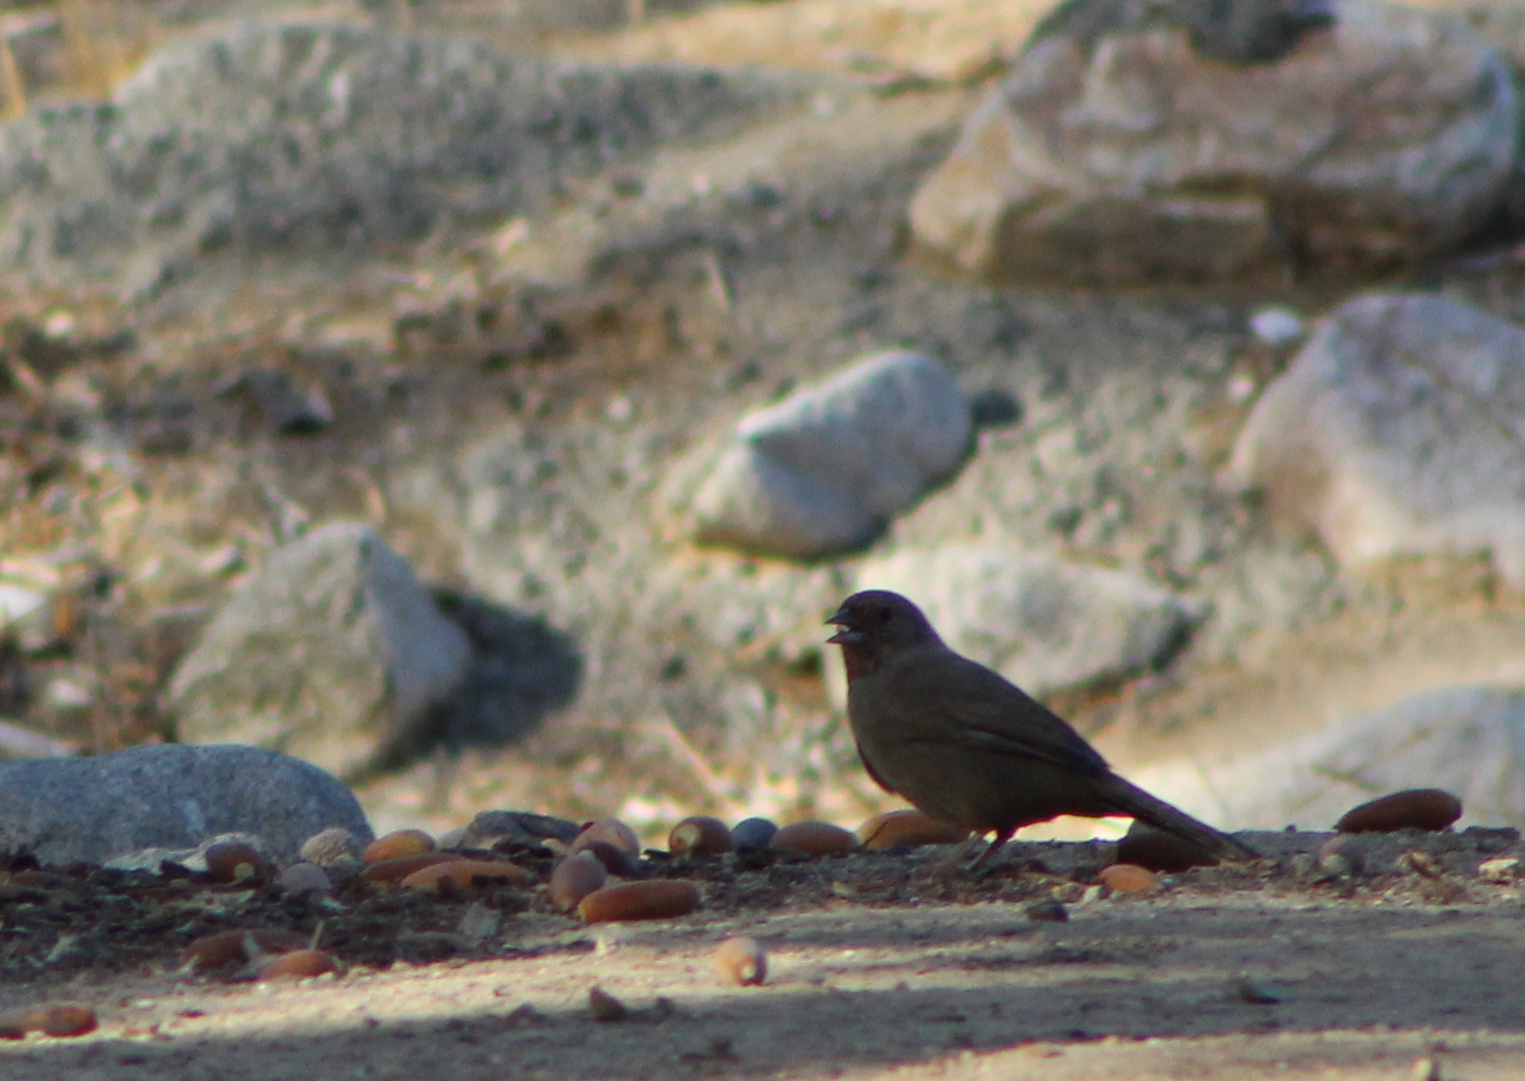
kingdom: Animalia
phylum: Chordata
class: Aves
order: Passeriformes
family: Passerellidae
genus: Melozone
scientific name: Melozone crissalis
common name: California towhee
